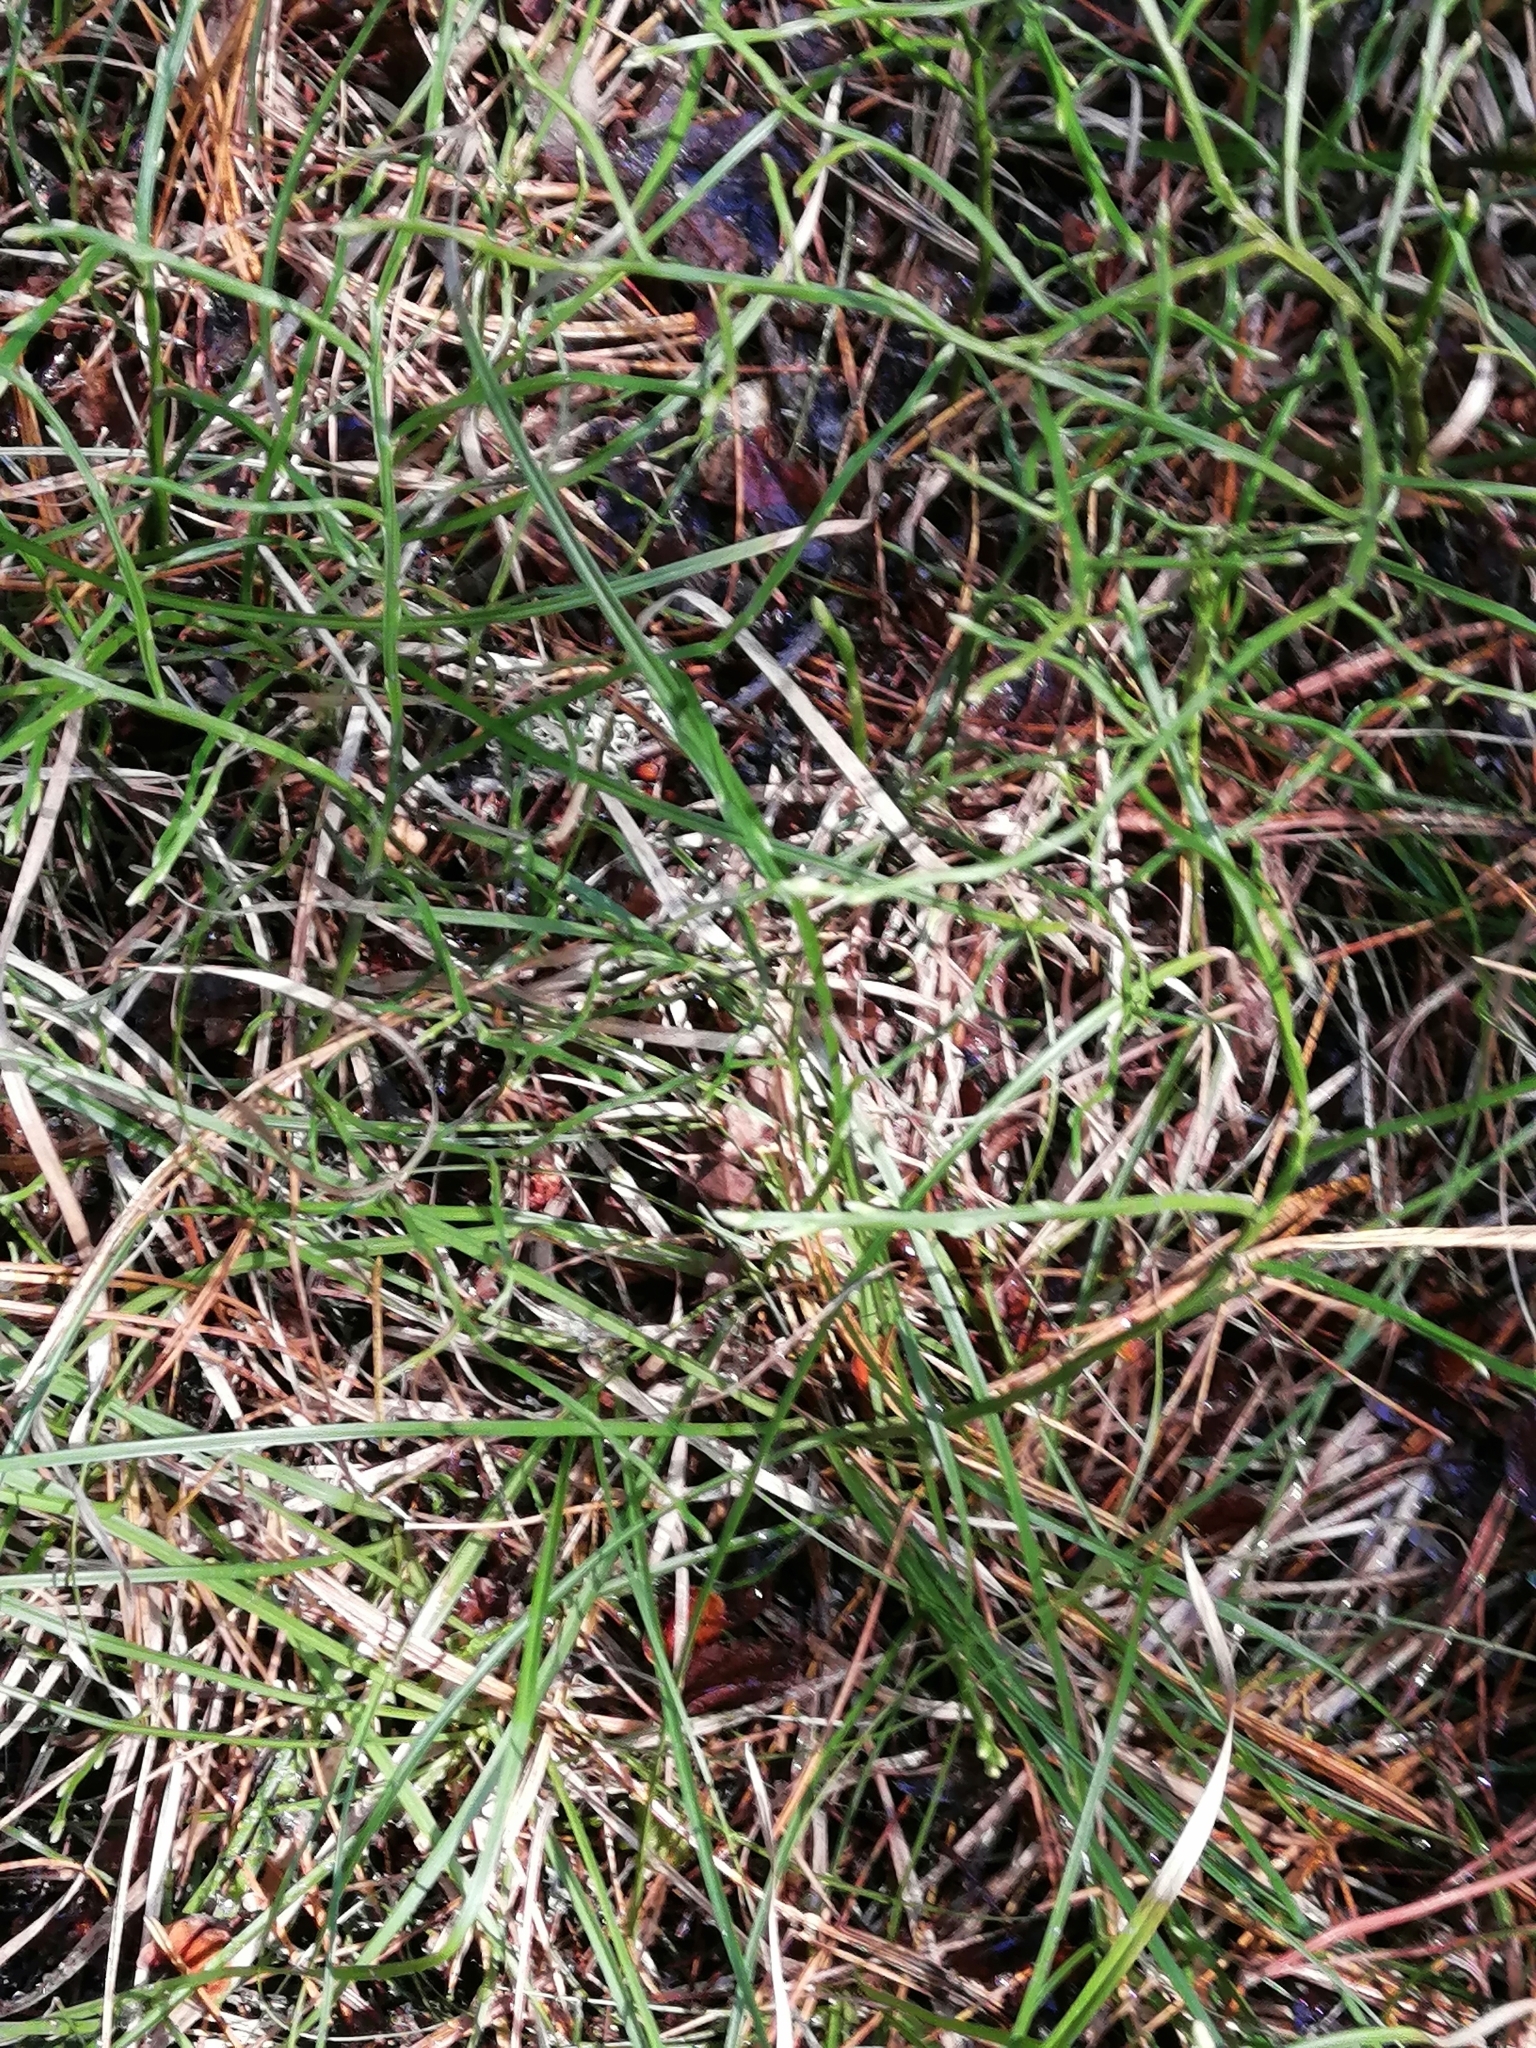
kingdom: Plantae
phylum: Tracheophyta
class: Magnoliopsida
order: Ericales
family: Ericaceae
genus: Vaccinium
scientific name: Vaccinium myrtillus
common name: Bilberry
